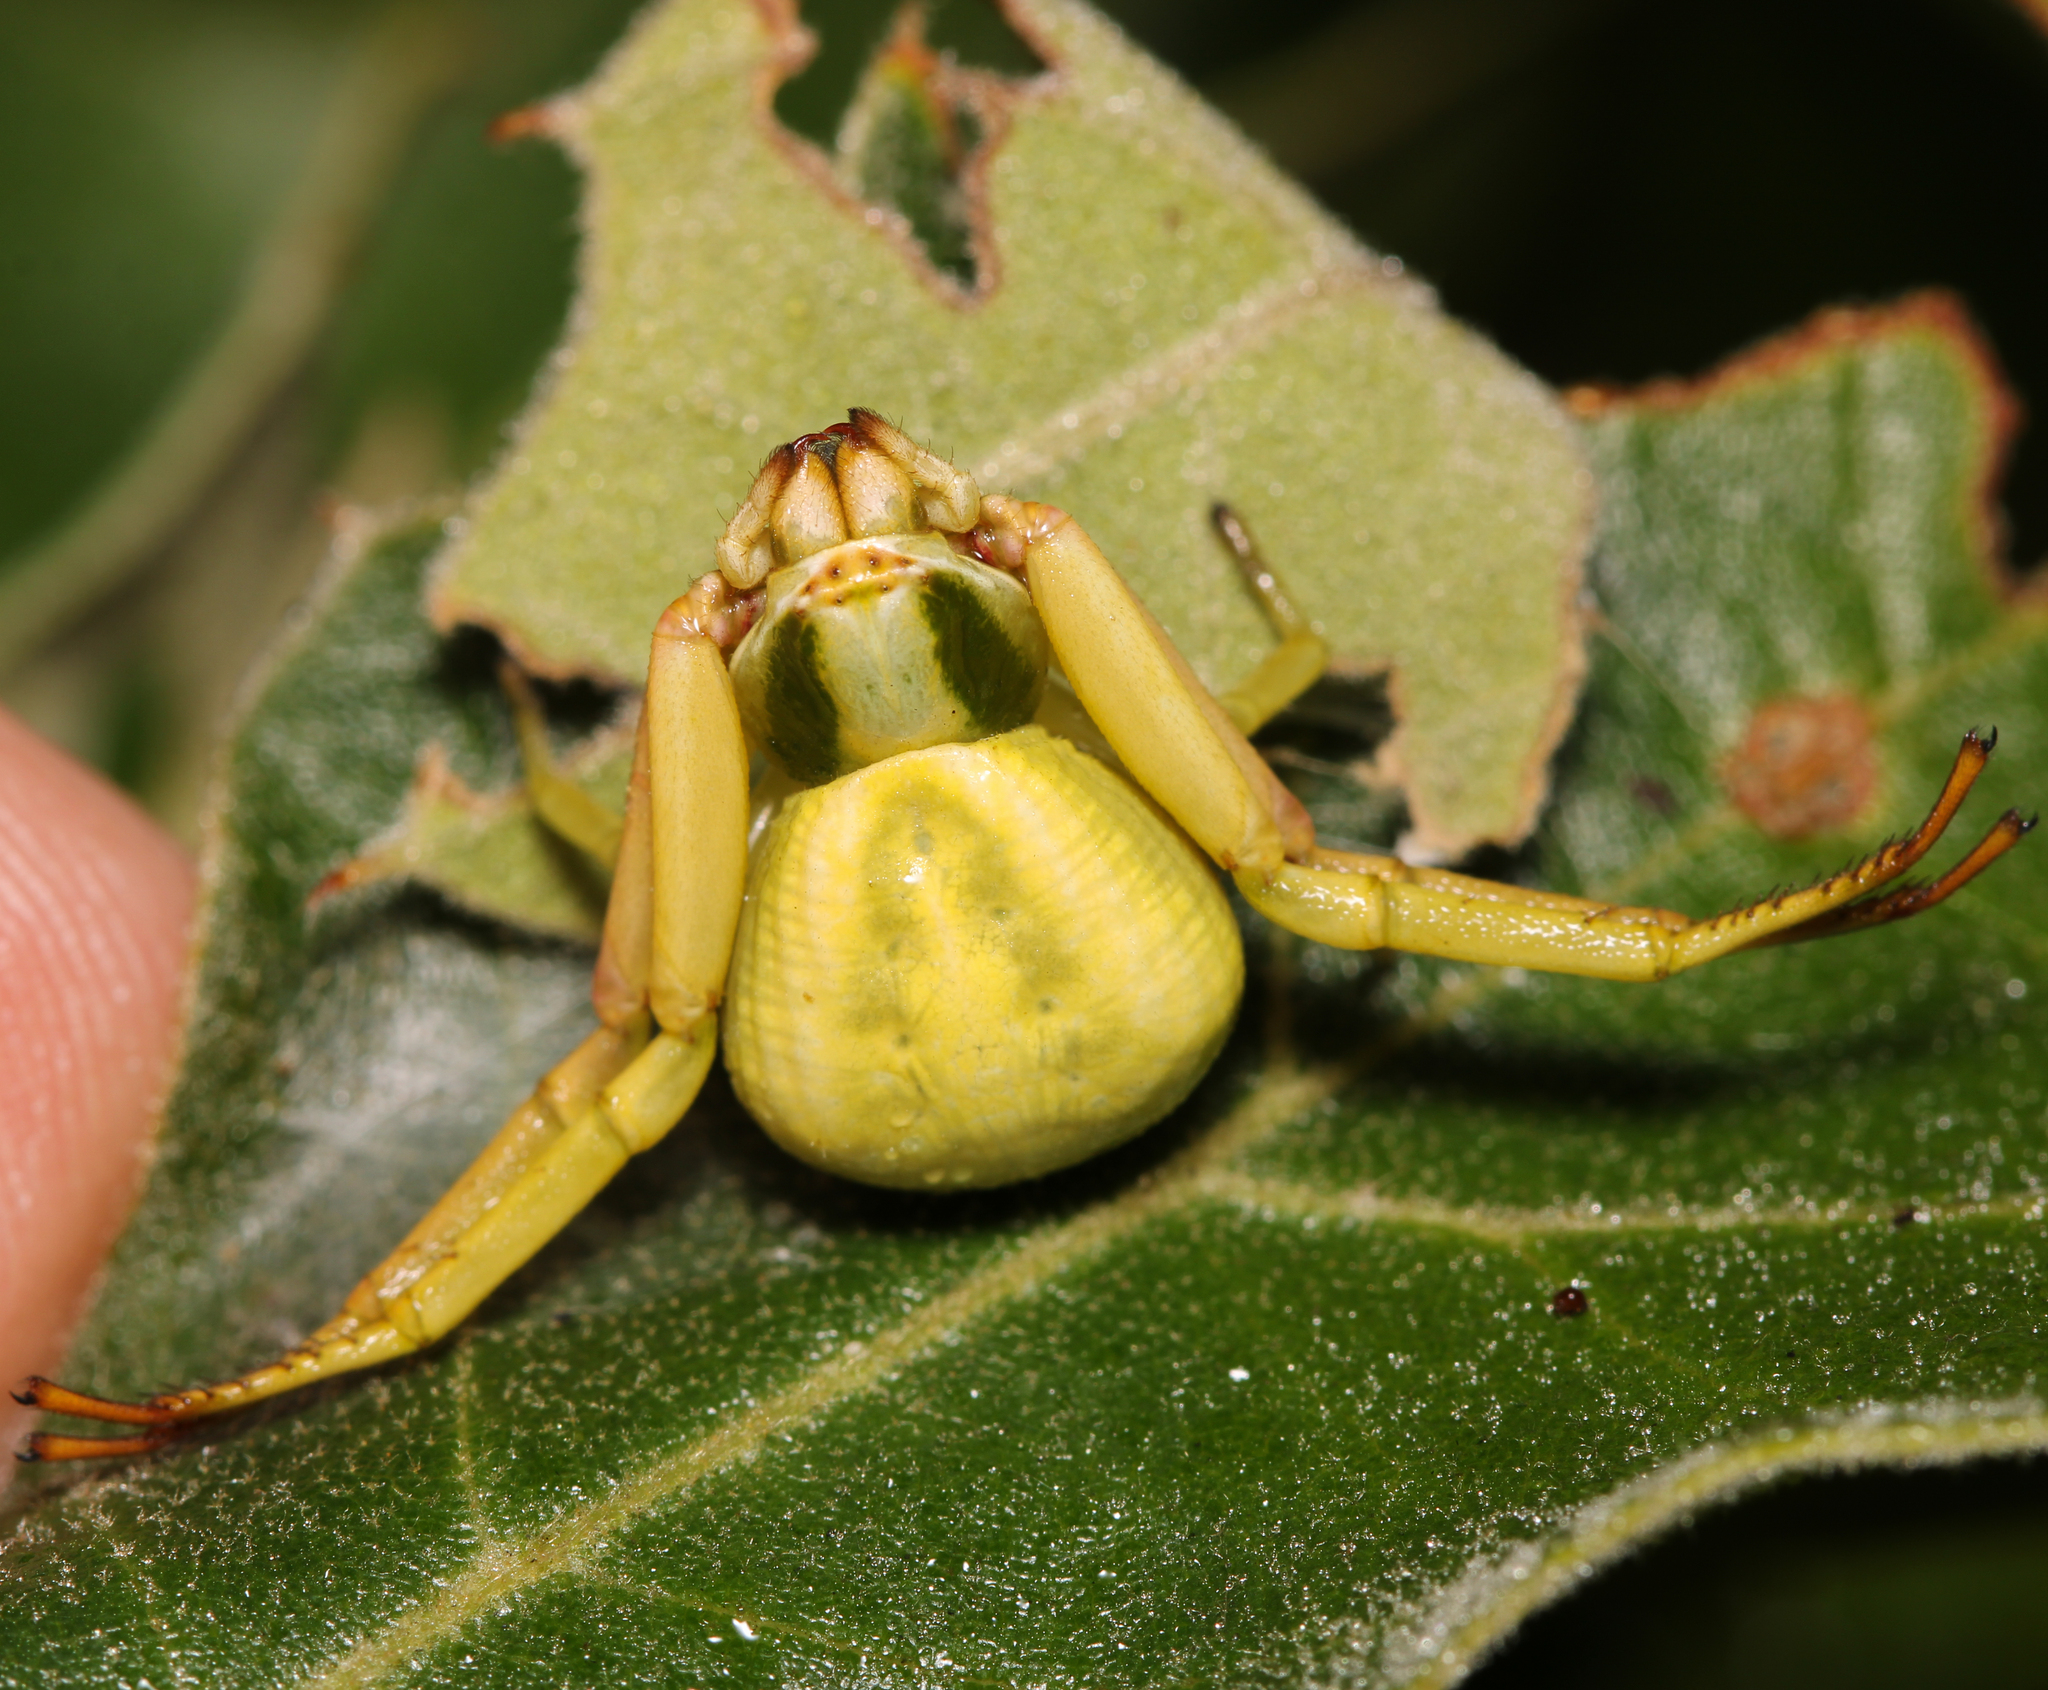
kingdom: Animalia
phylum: Arthropoda
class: Arachnida
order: Araneae
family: Thomisidae
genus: Misumenoides
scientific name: Misumenoides formosipes
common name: White-banded crab spider
